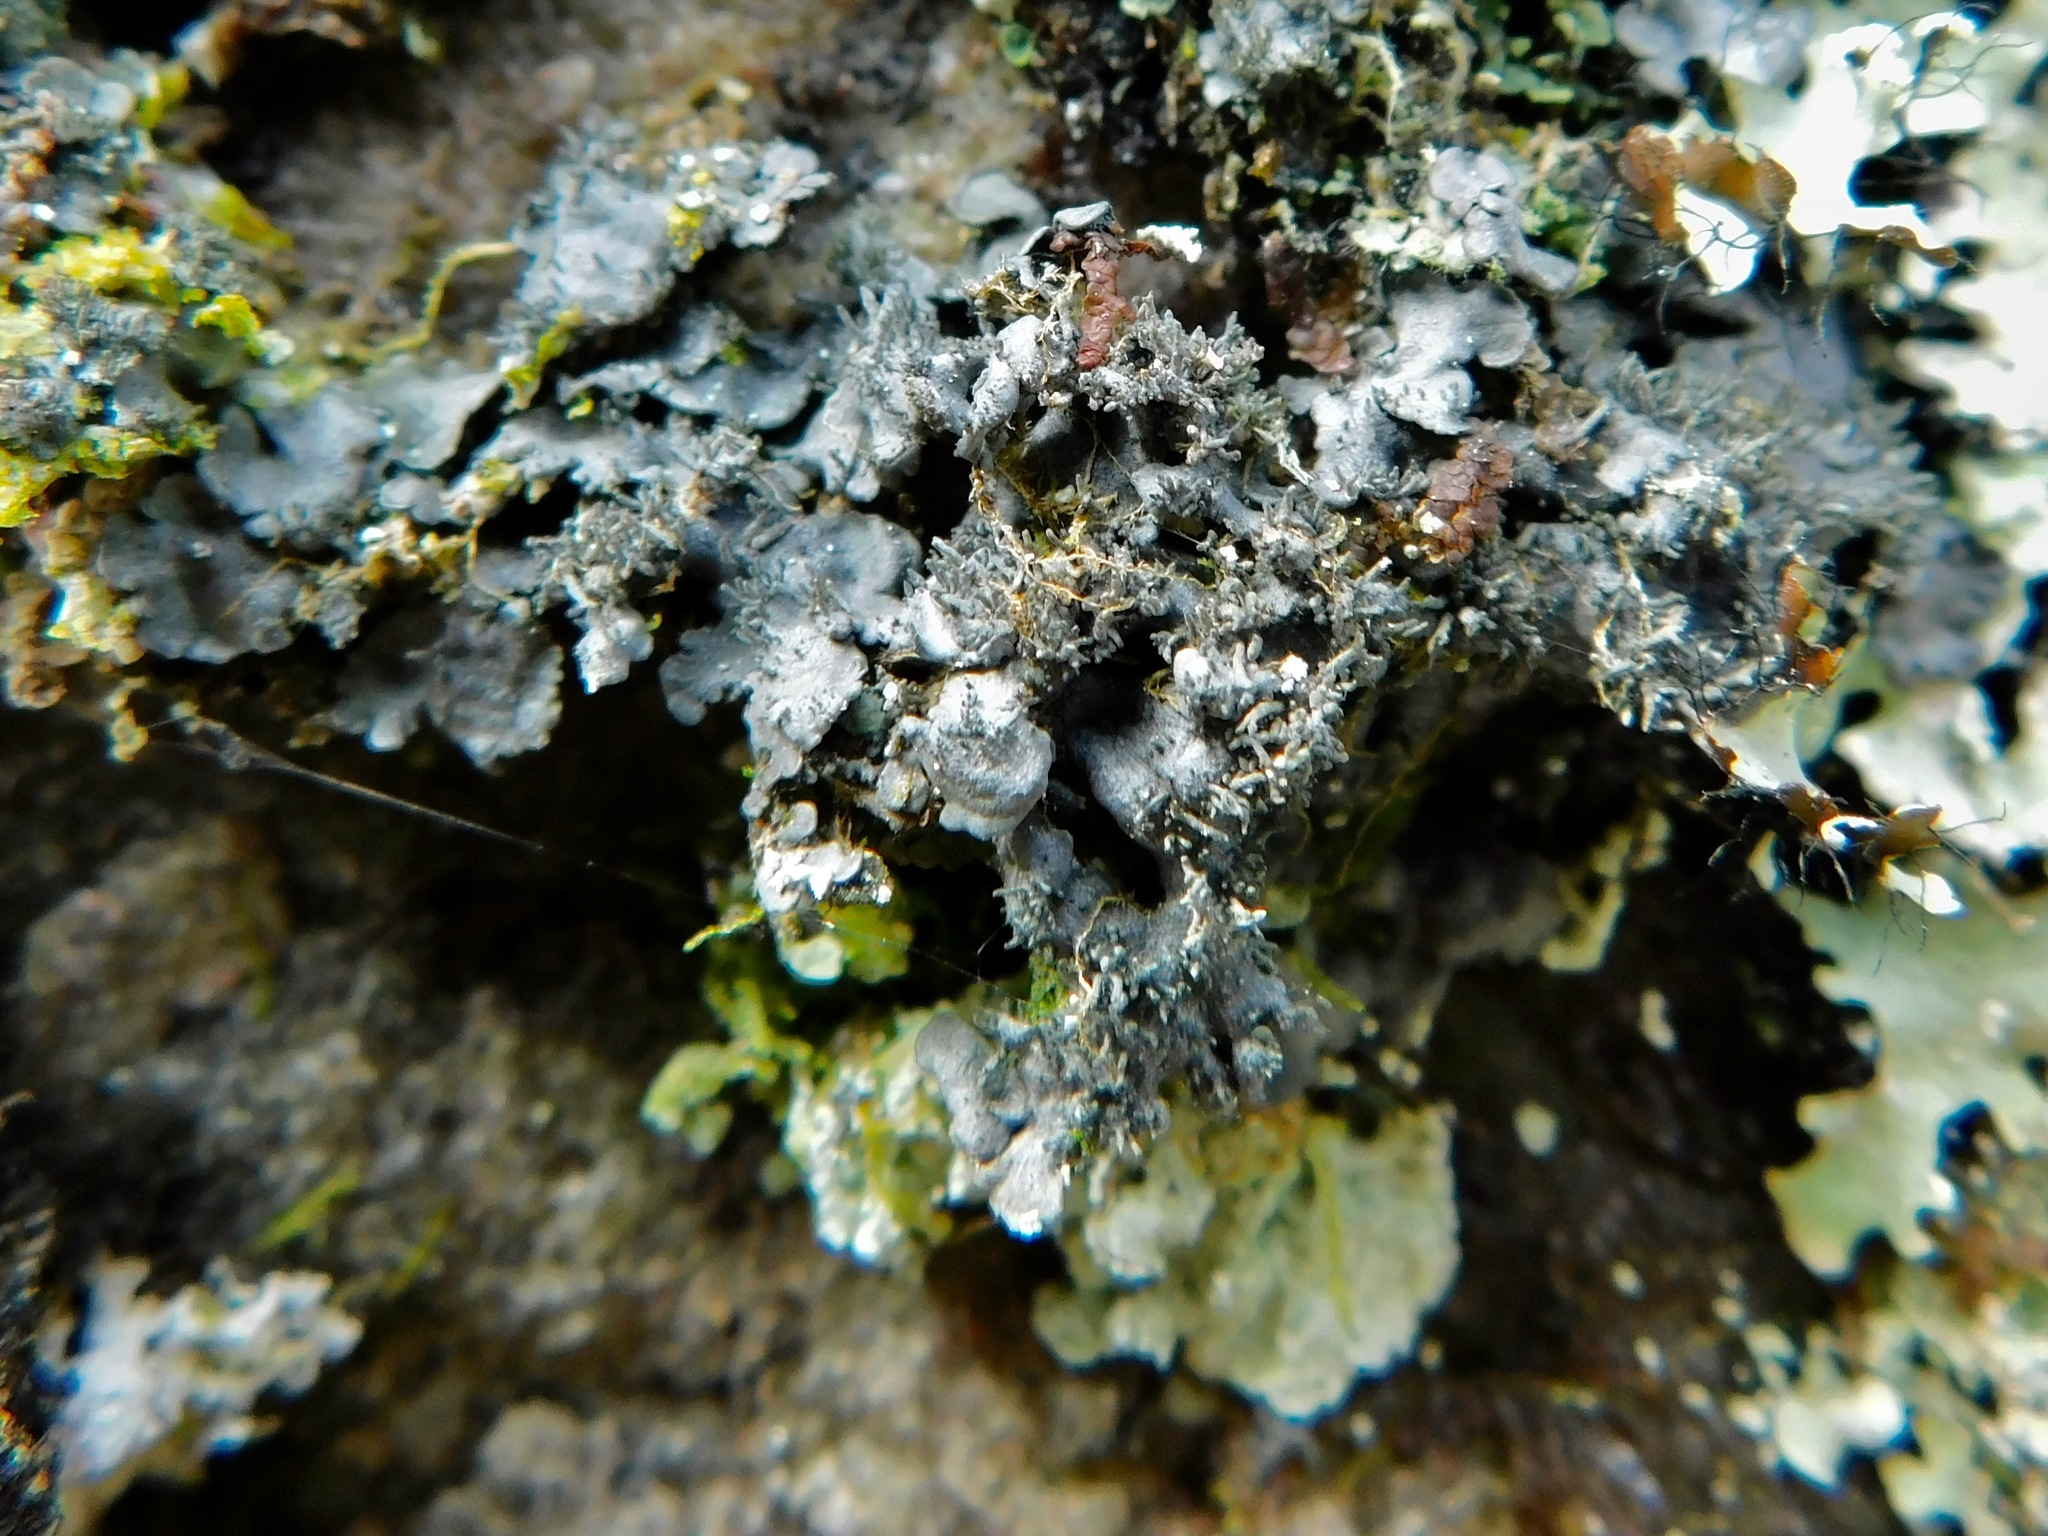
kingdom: Fungi
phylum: Ascomycota
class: Lecanoromycetes
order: Peltigerales
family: Pannariaceae
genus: Pannaria
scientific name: Pannaria tavaresii
